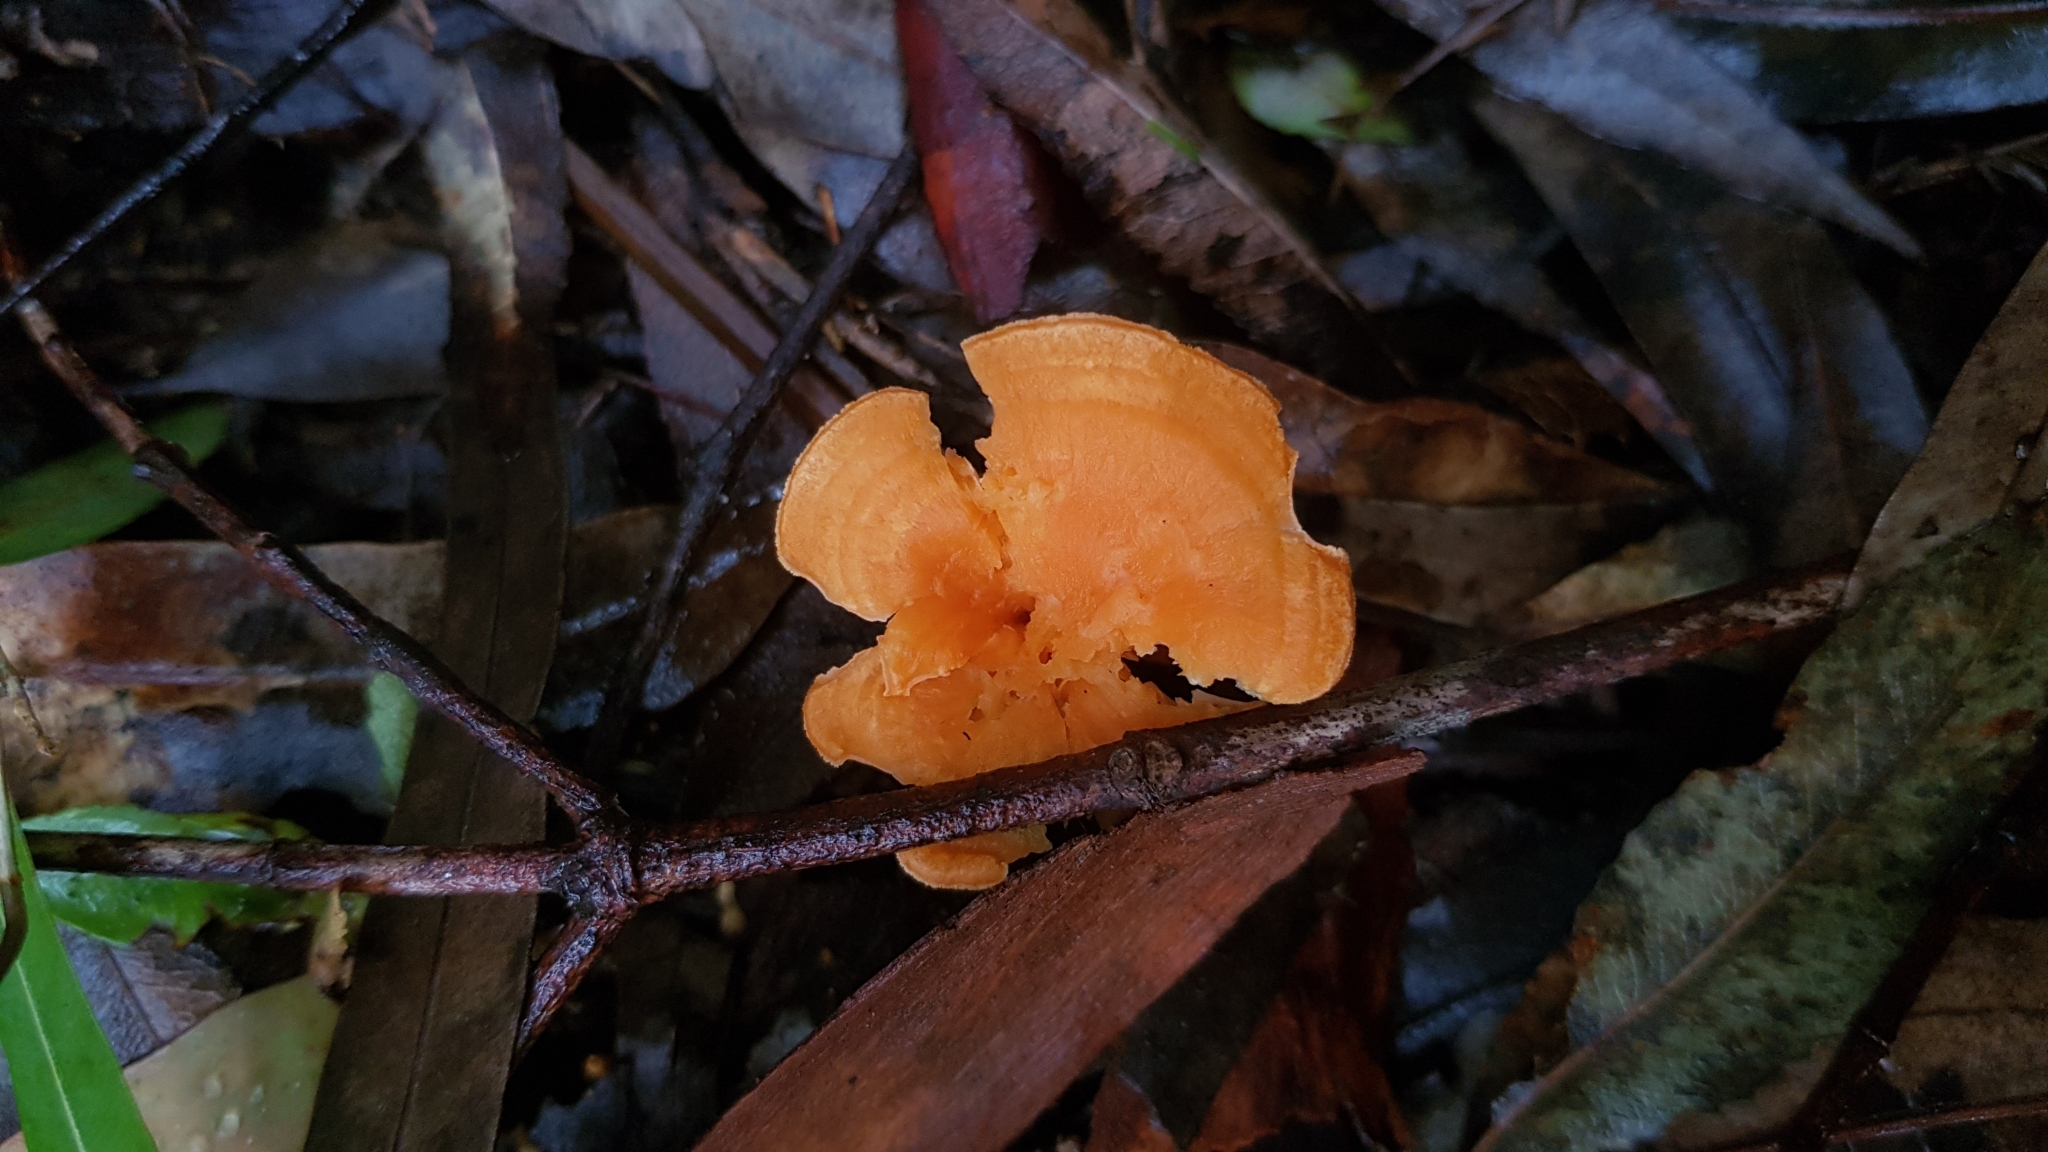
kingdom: Fungi
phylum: Basidiomycota
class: Agaricomycetes
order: Cantharellales
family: Hydnaceae
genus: Cantharellus
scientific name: Cantharellus
